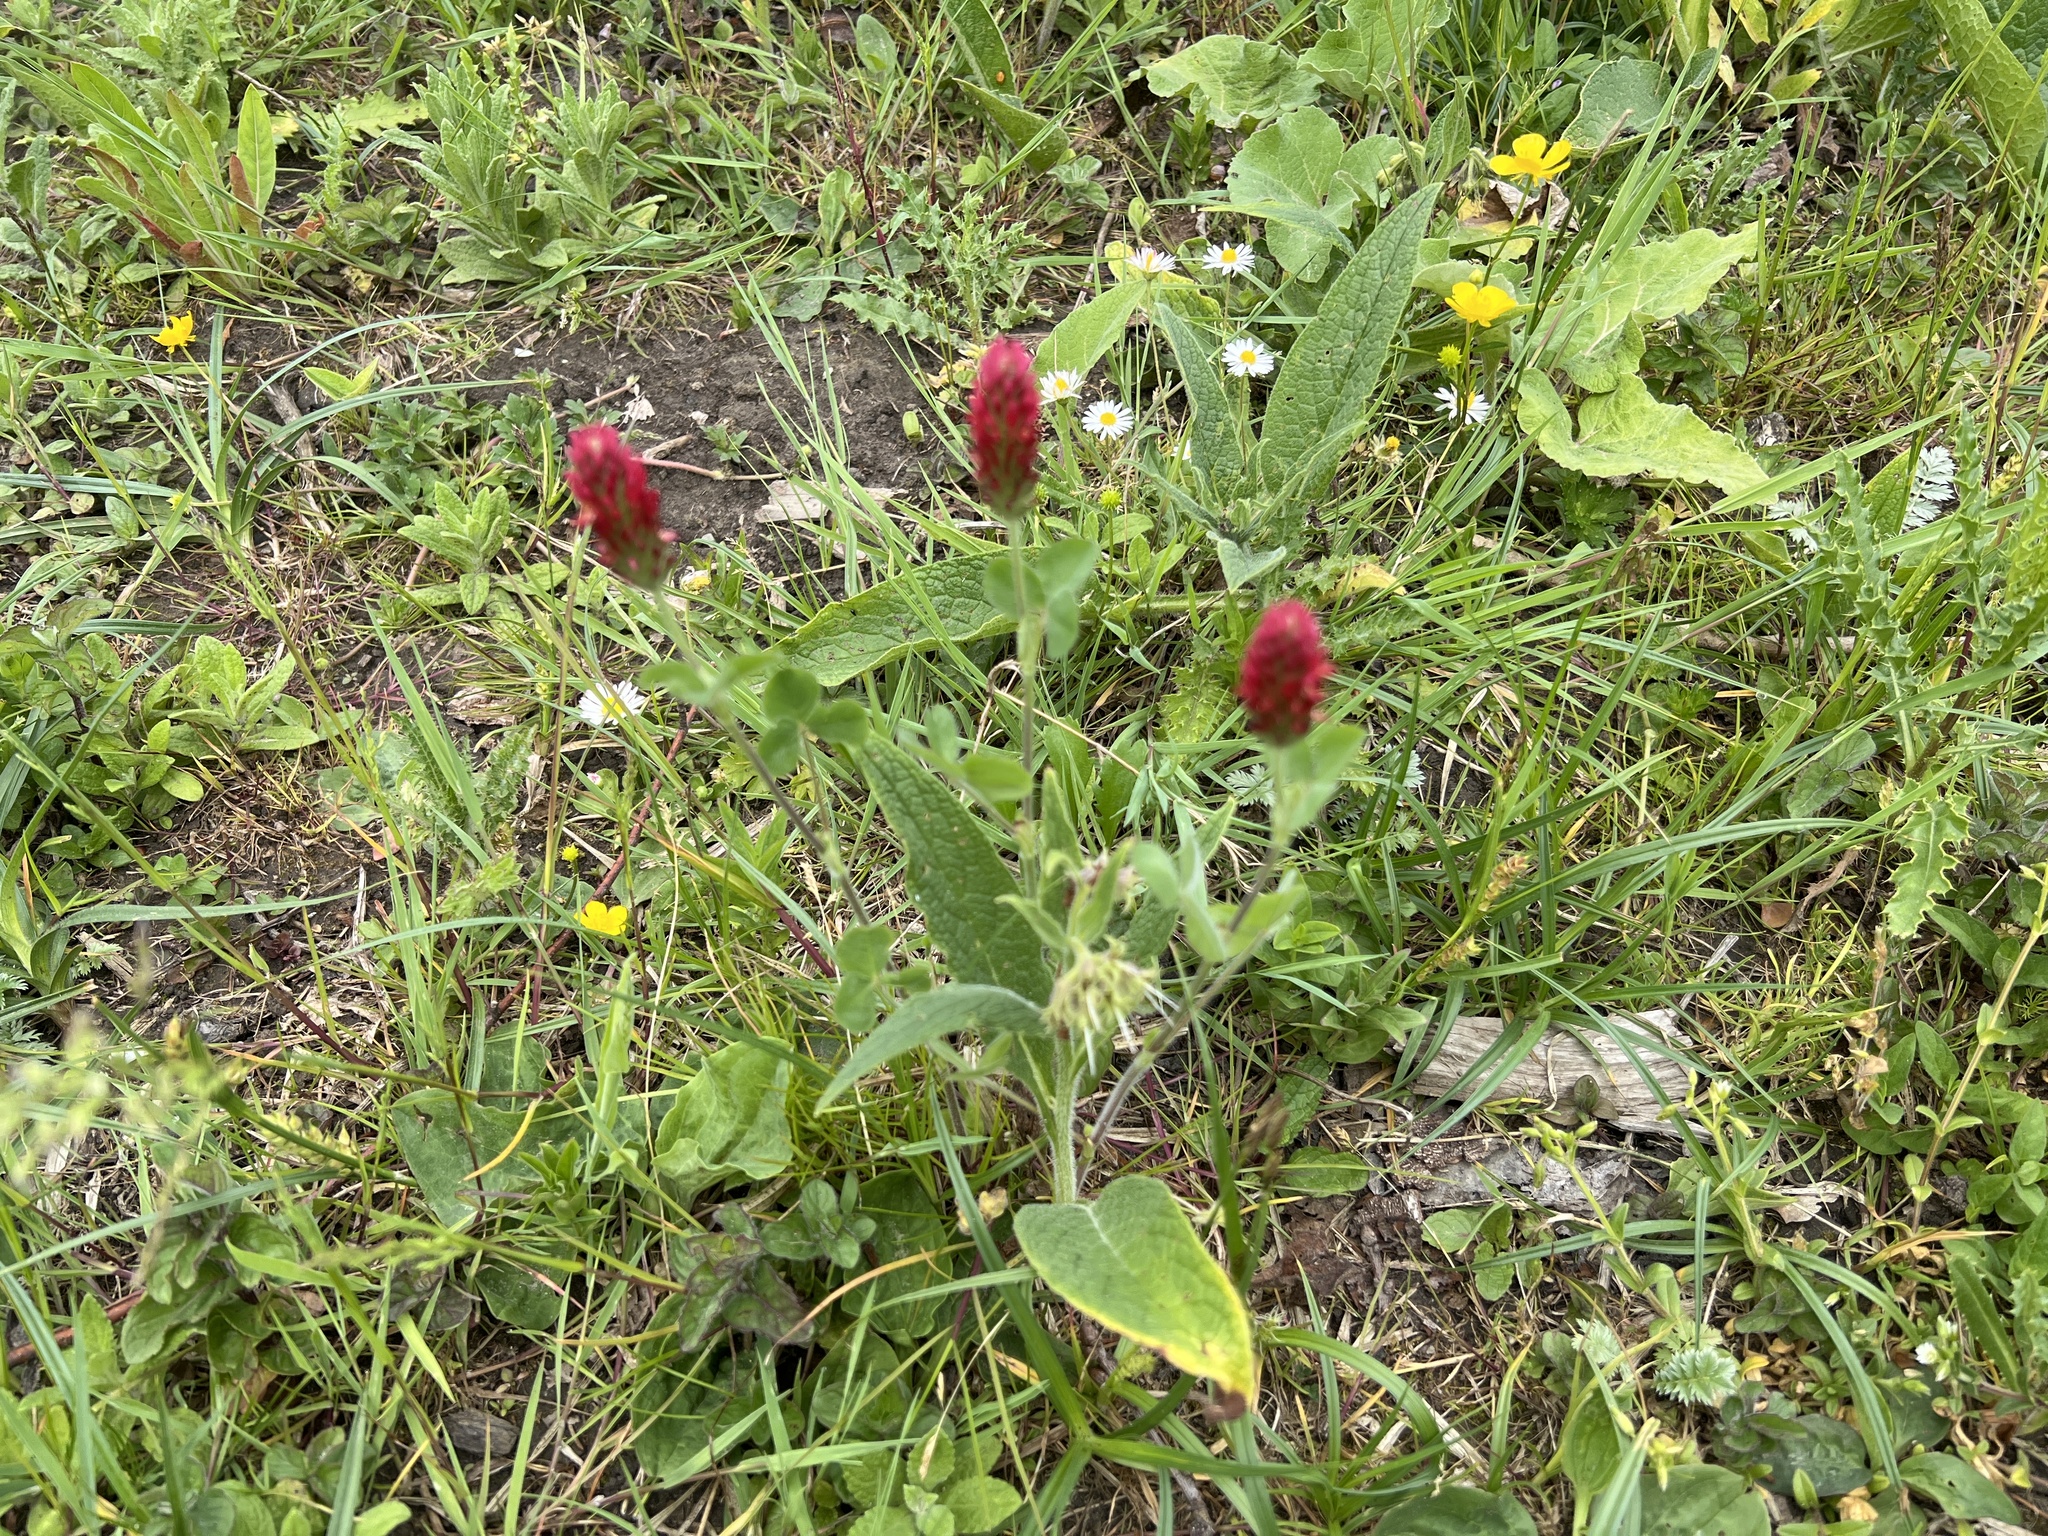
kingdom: Plantae
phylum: Tracheophyta
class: Magnoliopsida
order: Fabales
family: Fabaceae
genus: Trifolium
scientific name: Trifolium incarnatum
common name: Crimson clover
